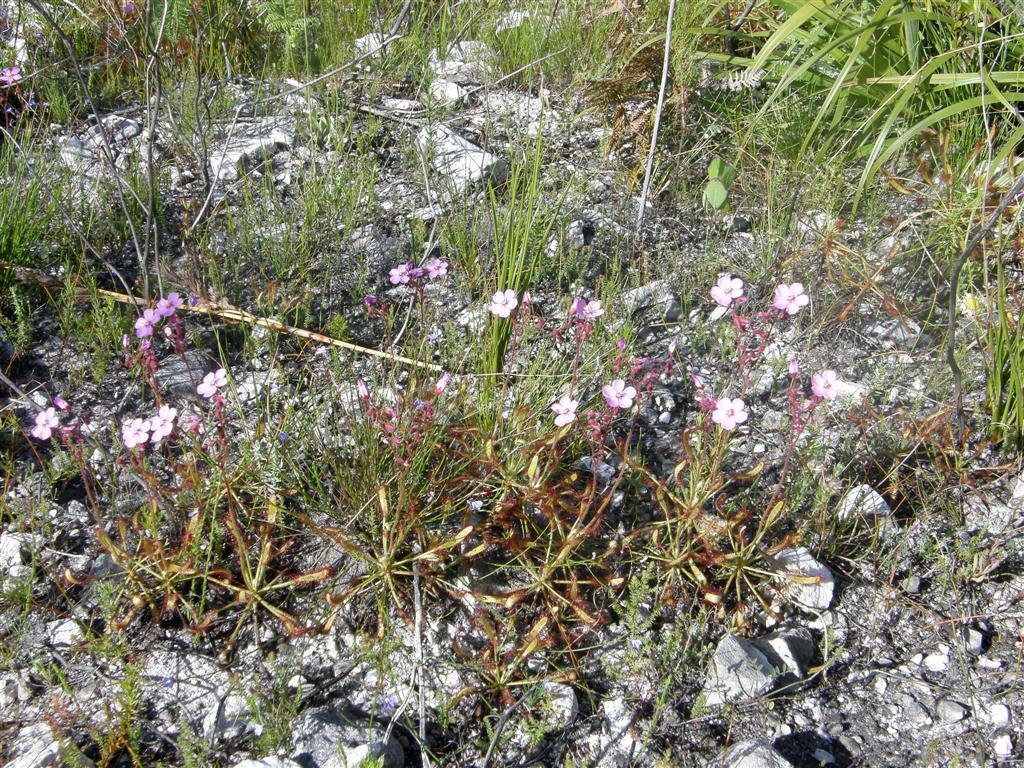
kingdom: Plantae
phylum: Tracheophyta
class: Magnoliopsida
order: Caryophyllales
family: Droseraceae
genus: Drosera
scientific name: Drosera capensis
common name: Cape sundew
